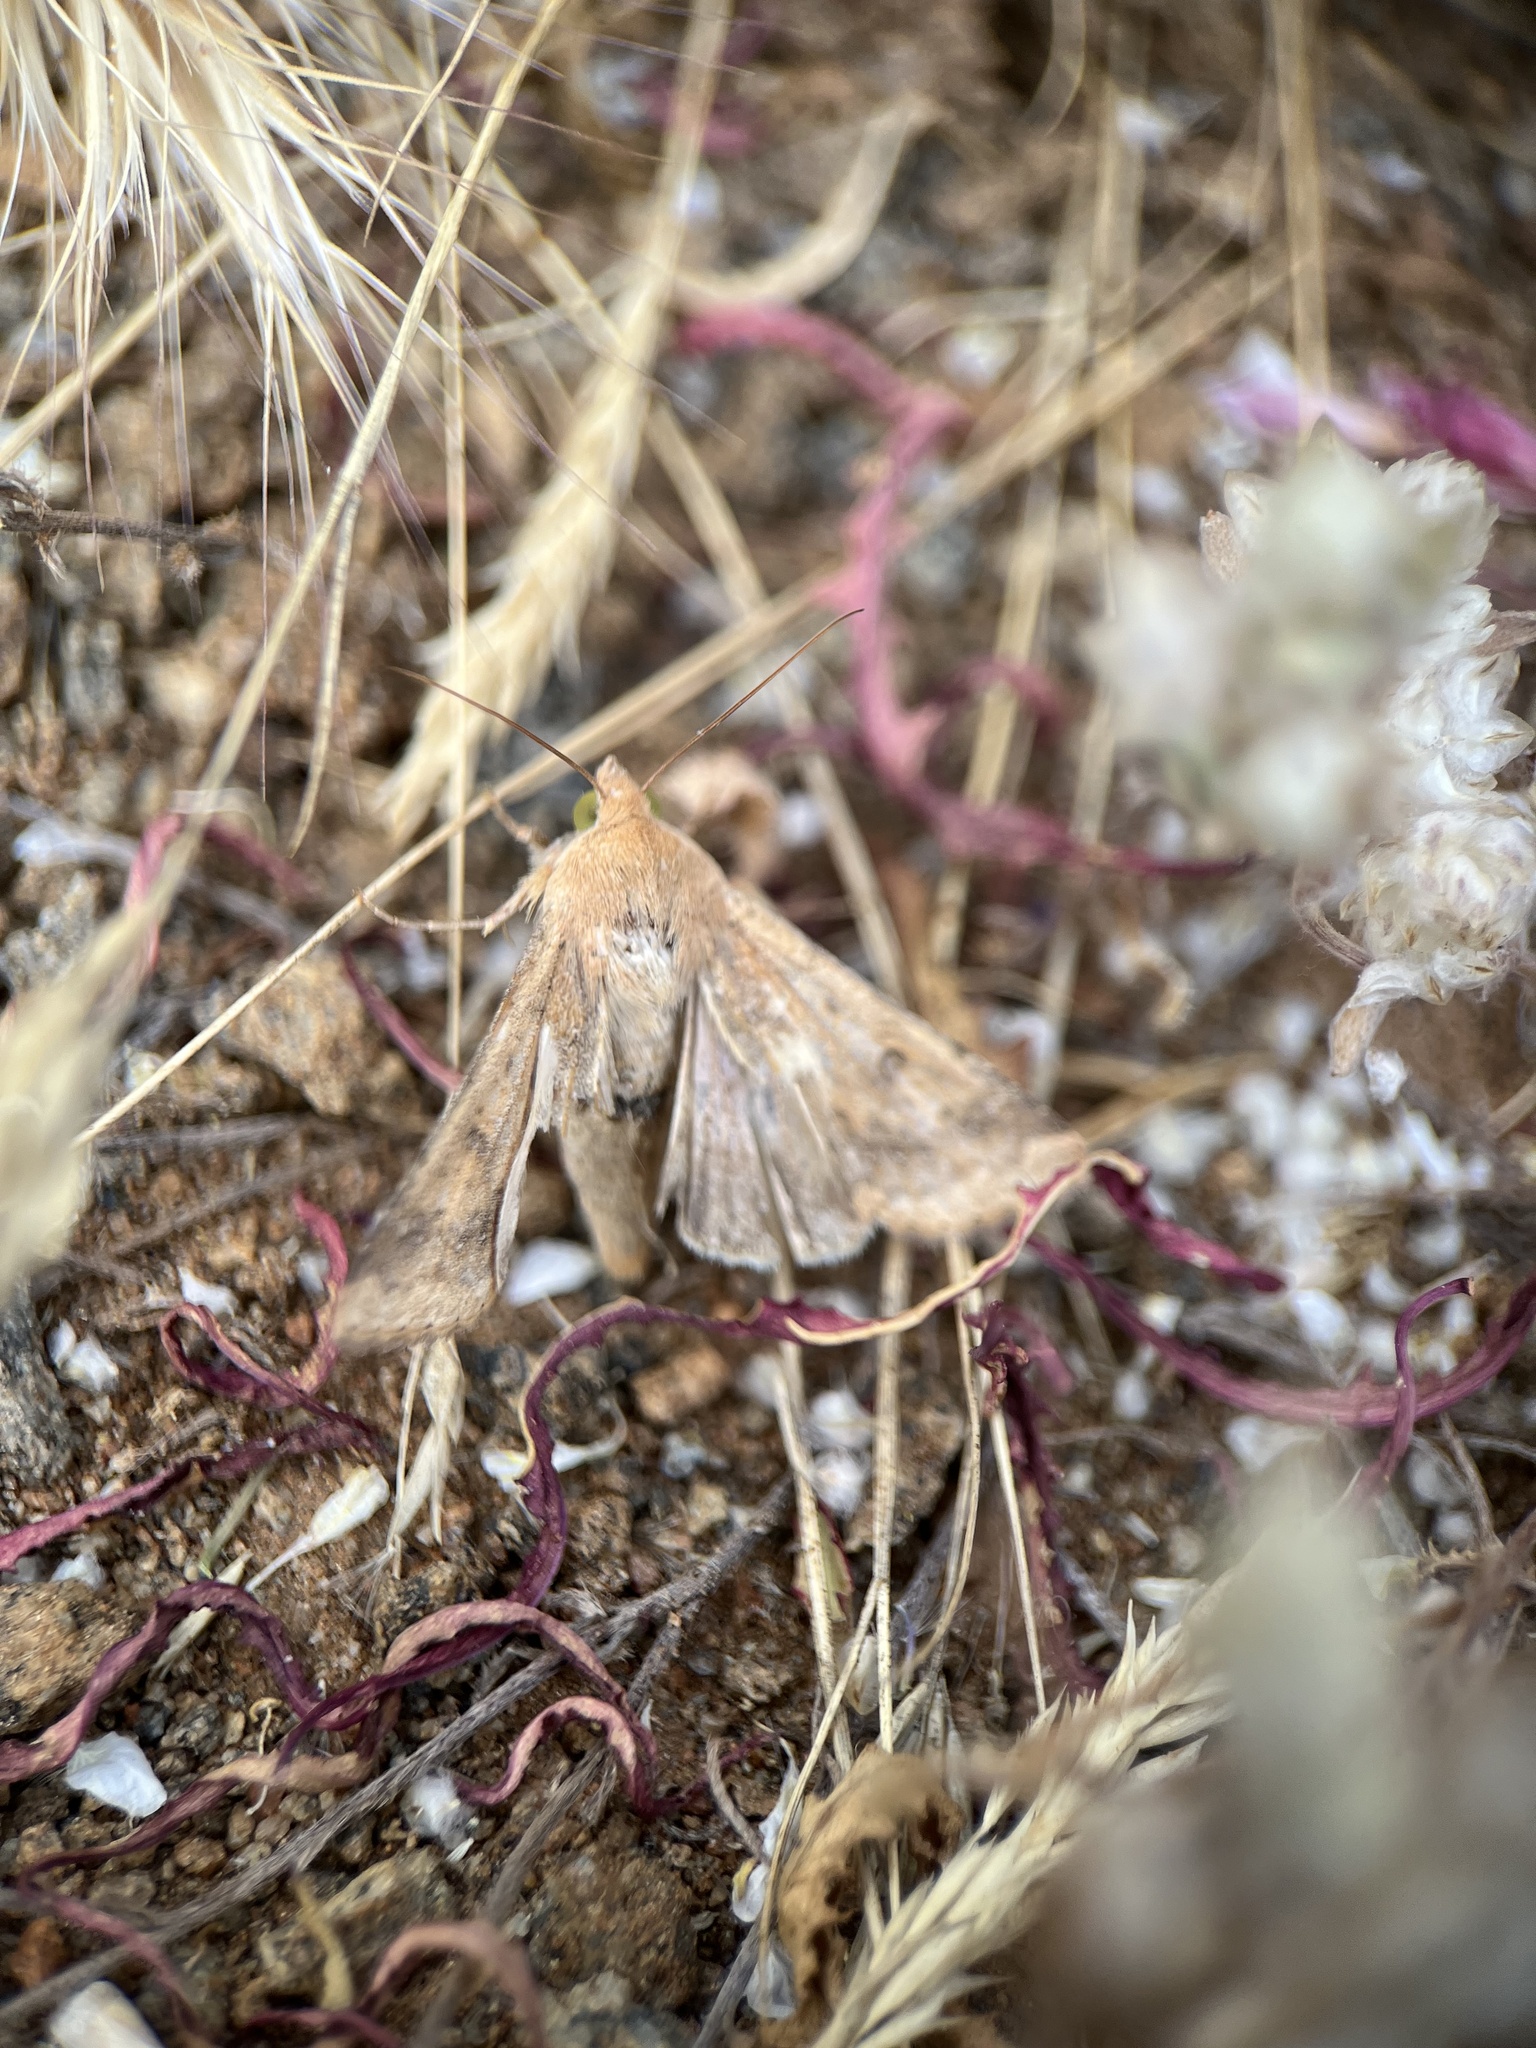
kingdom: Animalia
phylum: Arthropoda
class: Insecta
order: Lepidoptera
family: Noctuidae
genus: Helicoverpa
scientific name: Helicoverpa zea
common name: Bollworm
